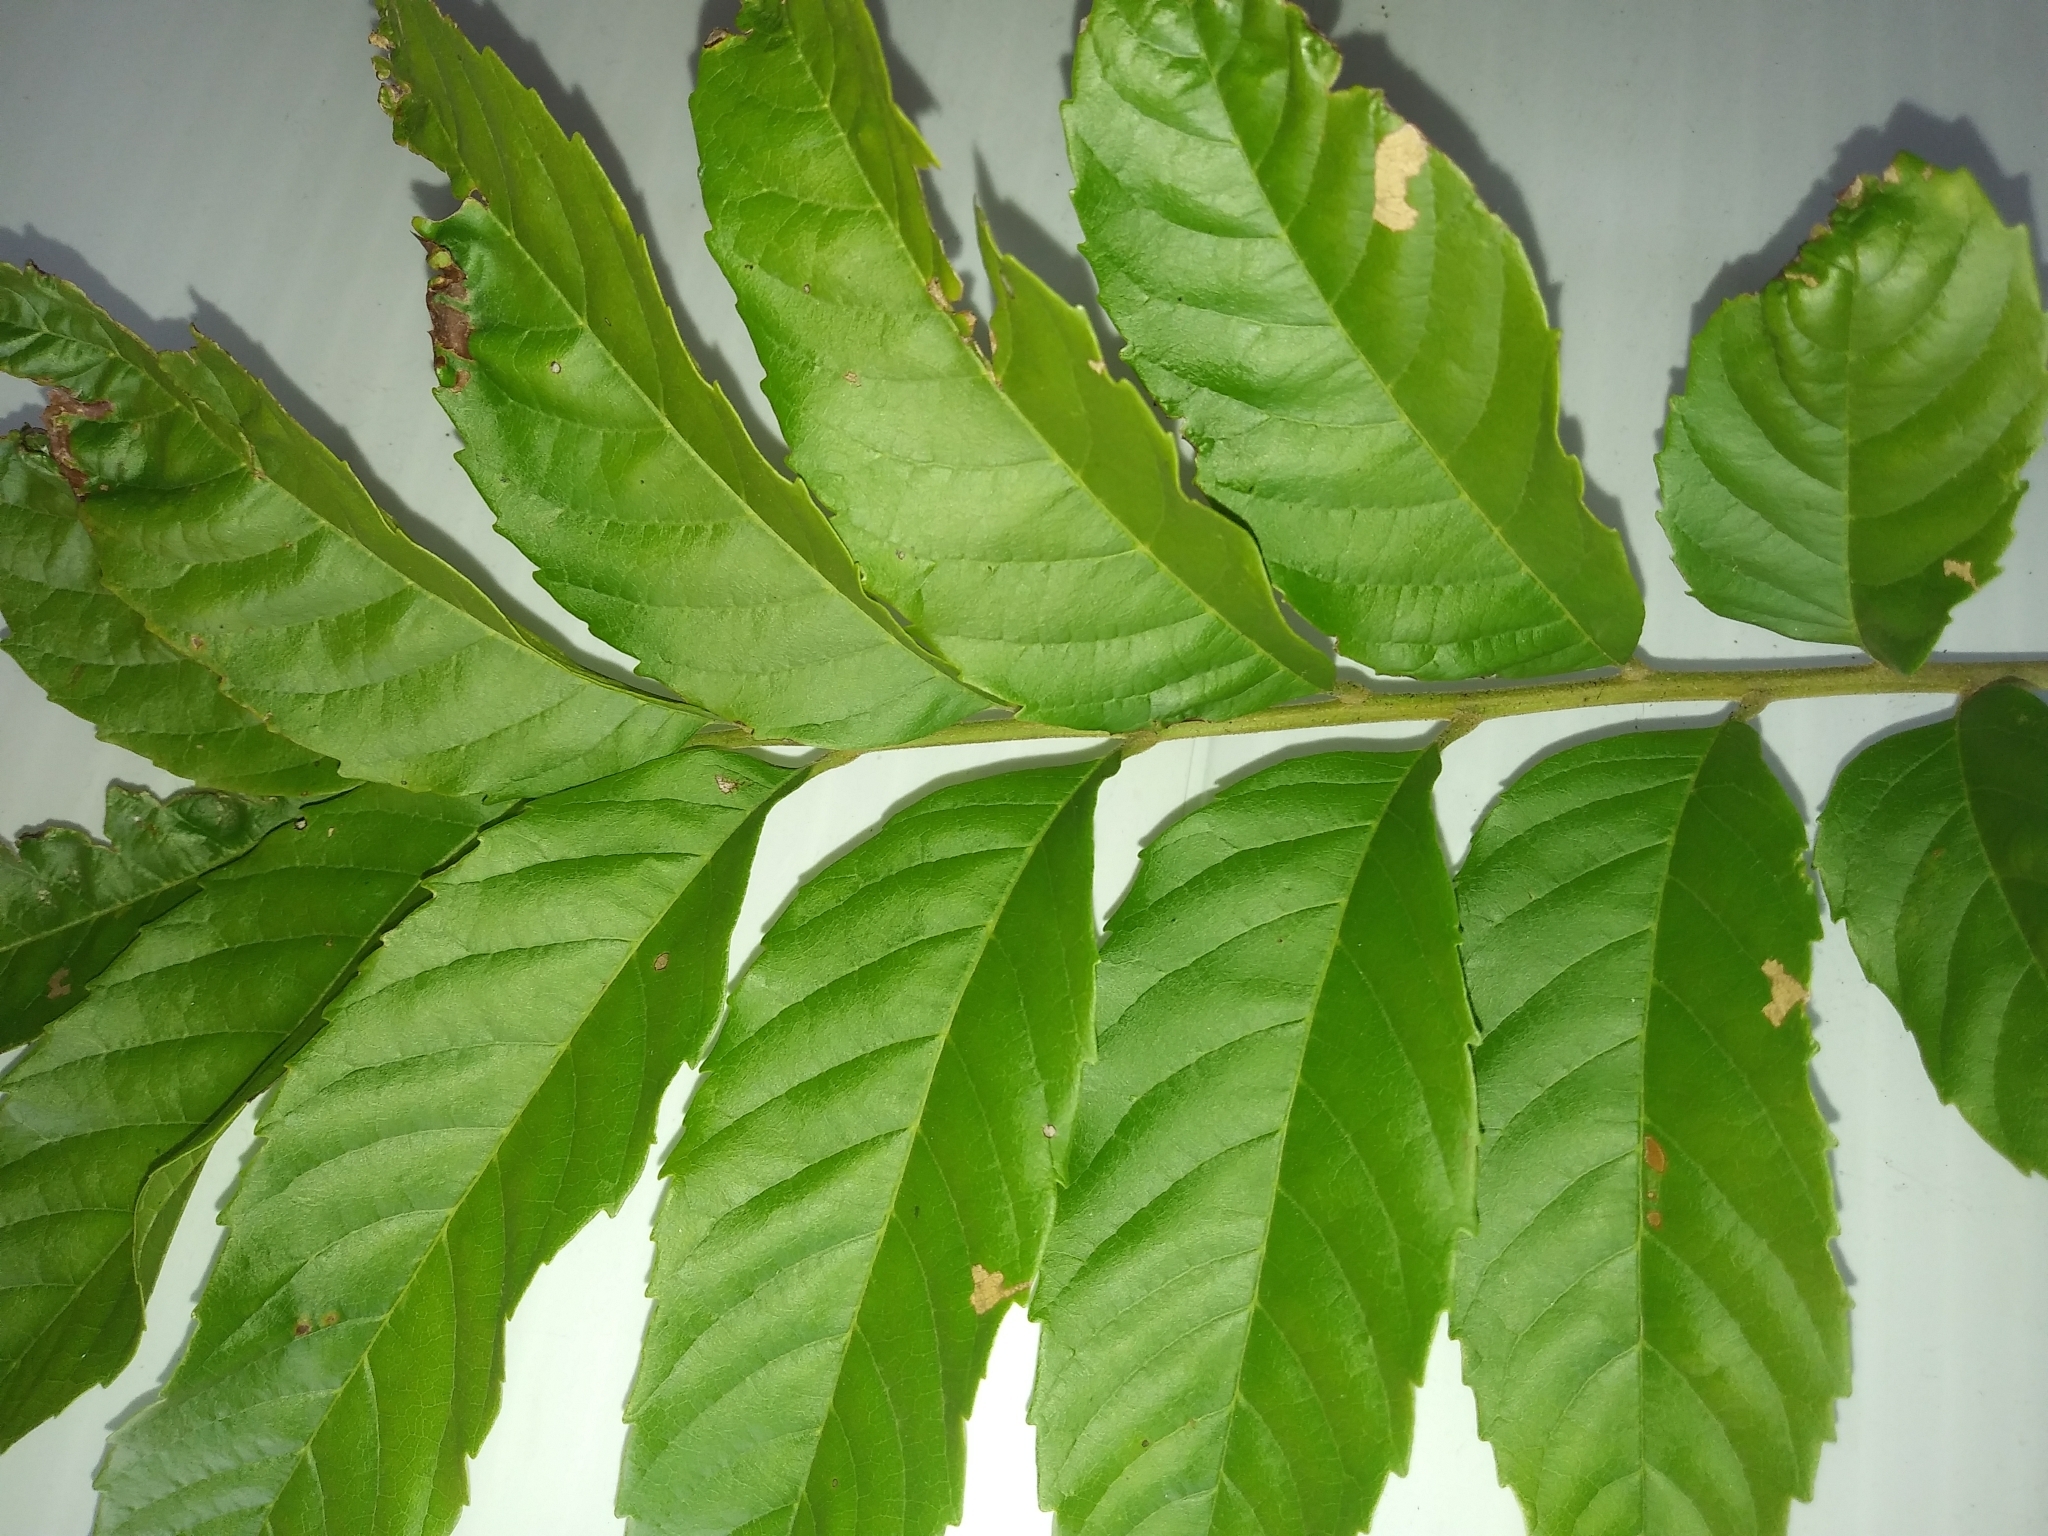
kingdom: Plantae
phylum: Tracheophyta
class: Magnoliopsida
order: Sapindales
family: Sapindaceae
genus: Cupania
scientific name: Cupania vernalis
